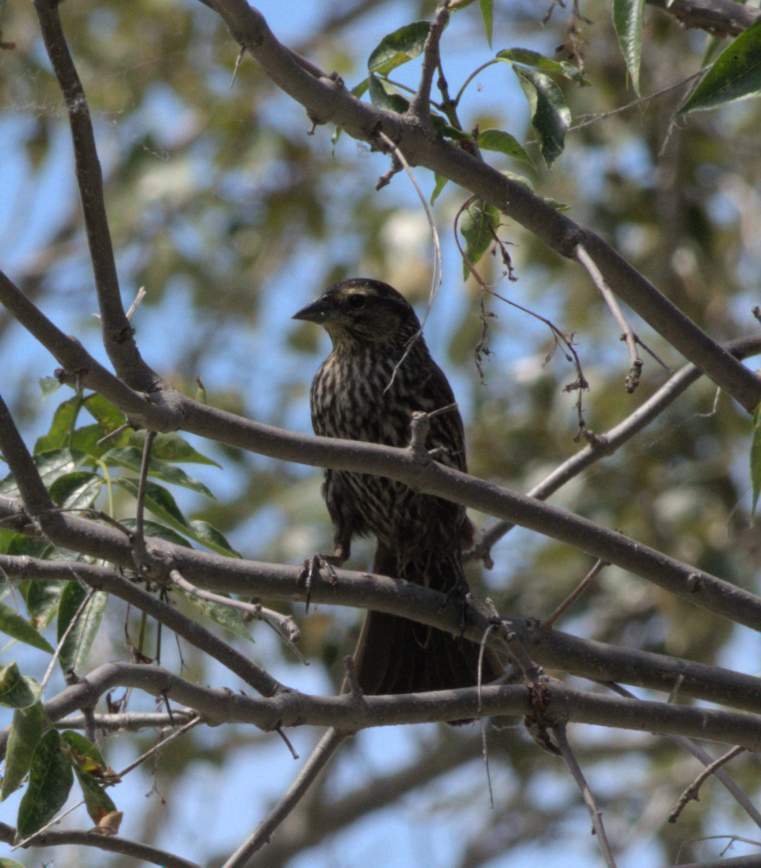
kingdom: Animalia
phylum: Chordata
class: Aves
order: Passeriformes
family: Icteridae
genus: Agelaius
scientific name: Agelaius phoeniceus
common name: Red-winged blackbird
